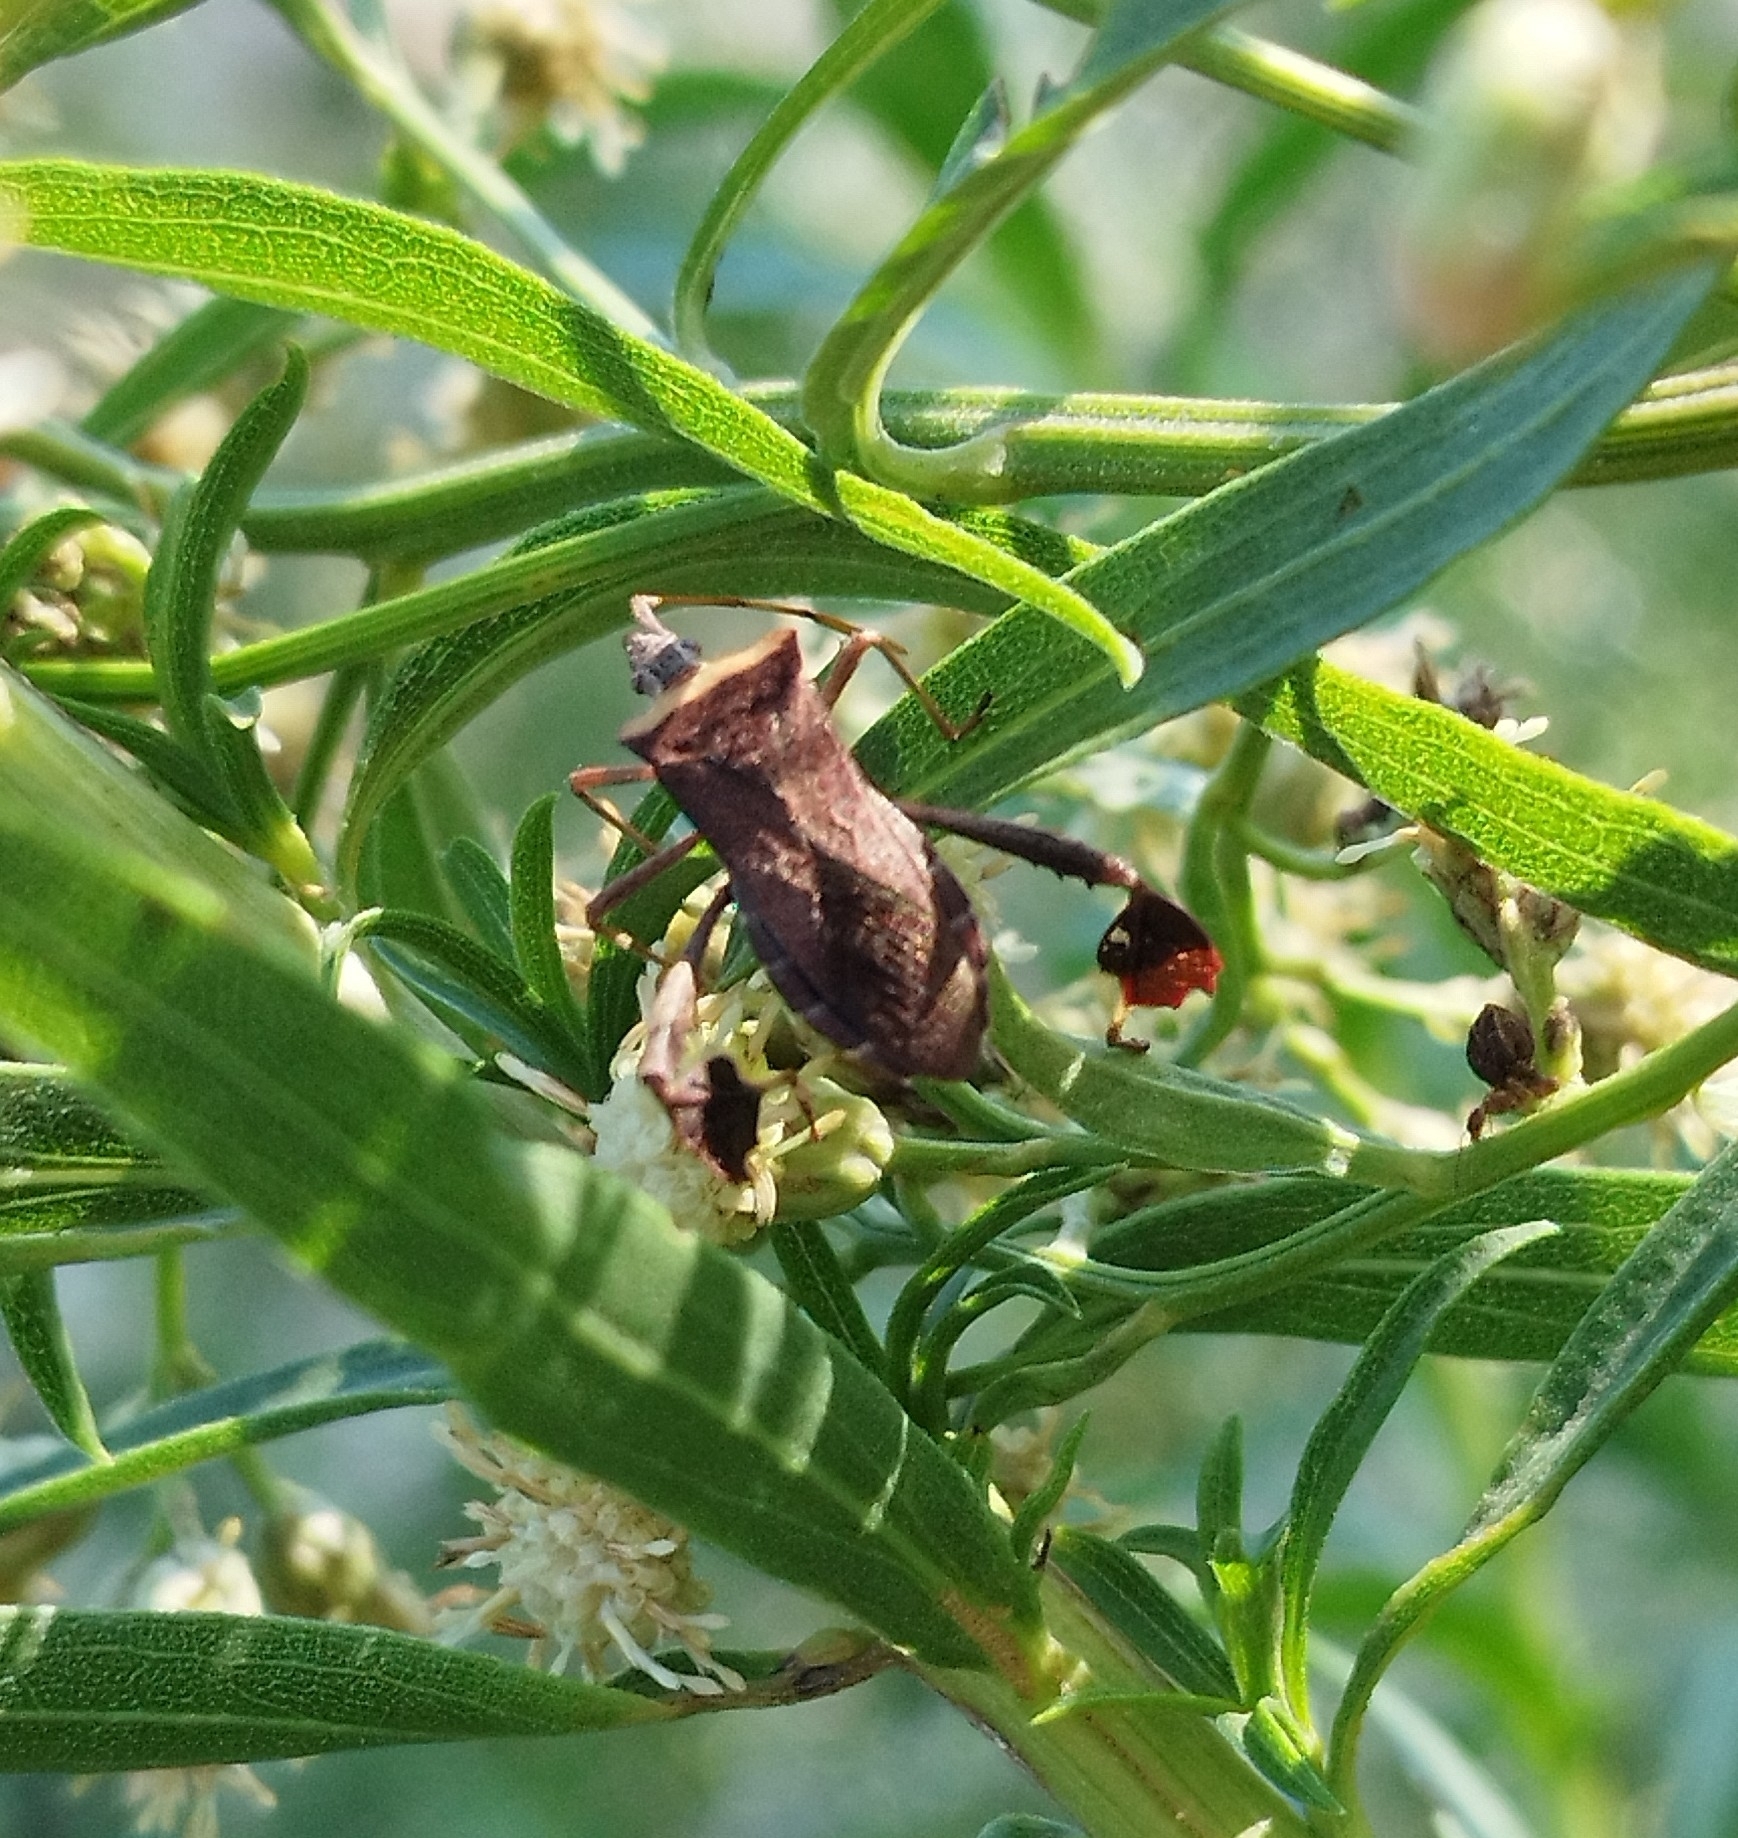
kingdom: Animalia
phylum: Arthropoda
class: Insecta
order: Hemiptera
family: Coreidae
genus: Leptoglossus
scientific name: Leptoglossus concaviusculus
